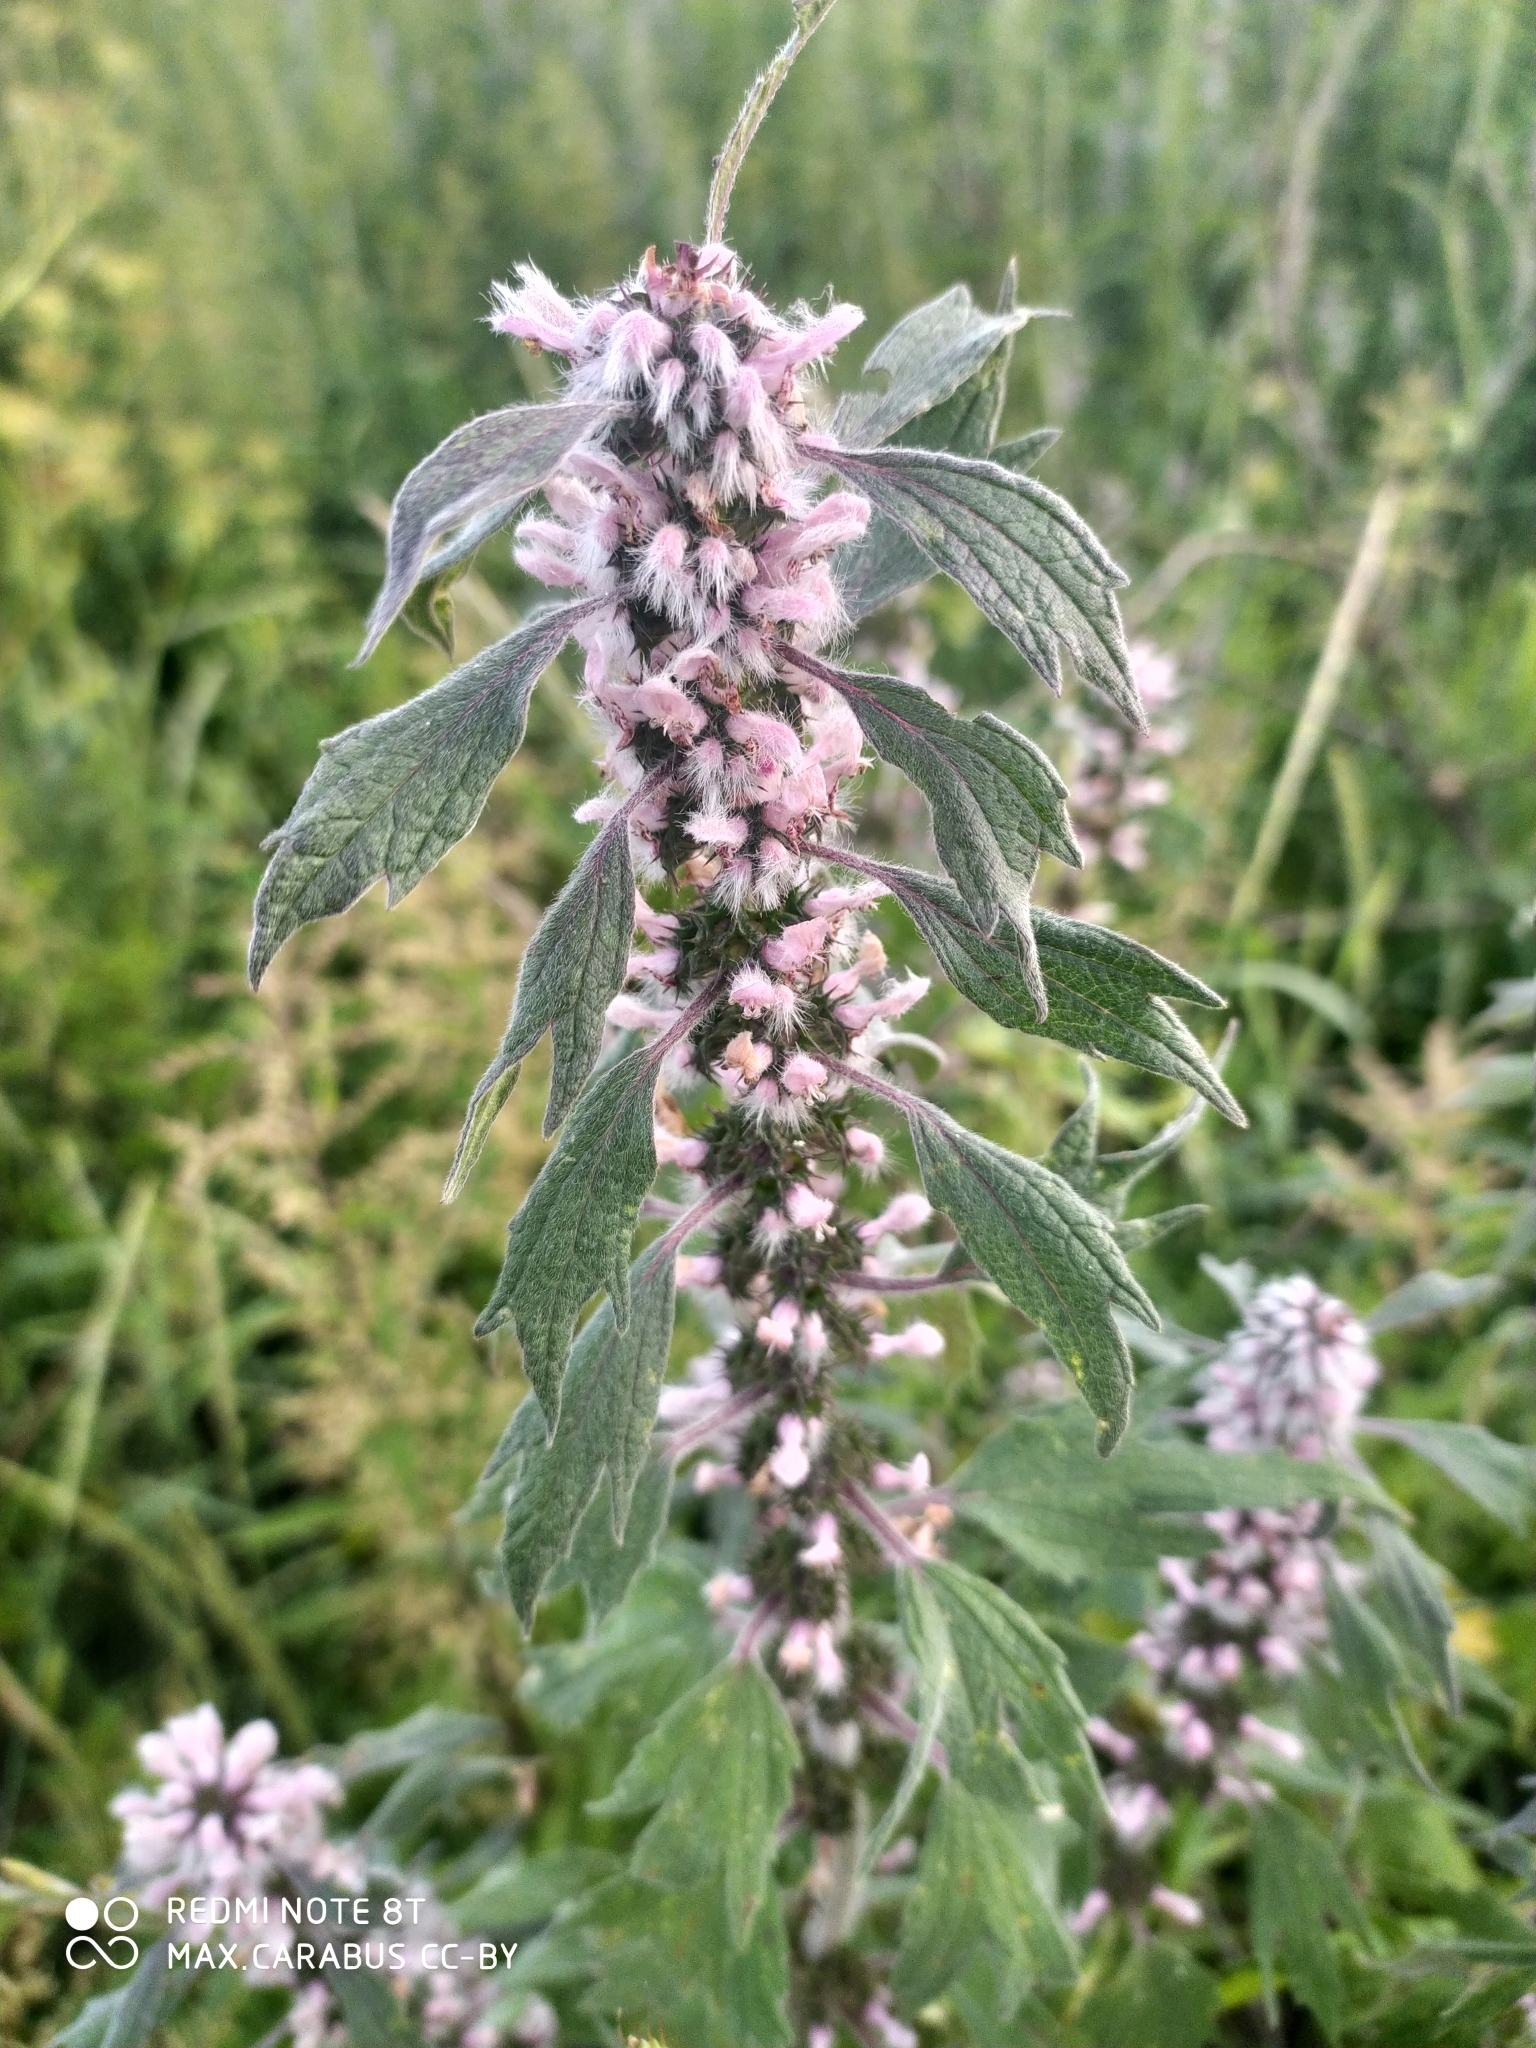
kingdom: Plantae
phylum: Tracheophyta
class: Magnoliopsida
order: Lamiales
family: Lamiaceae
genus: Leonurus
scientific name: Leonurus quinquelobatus
